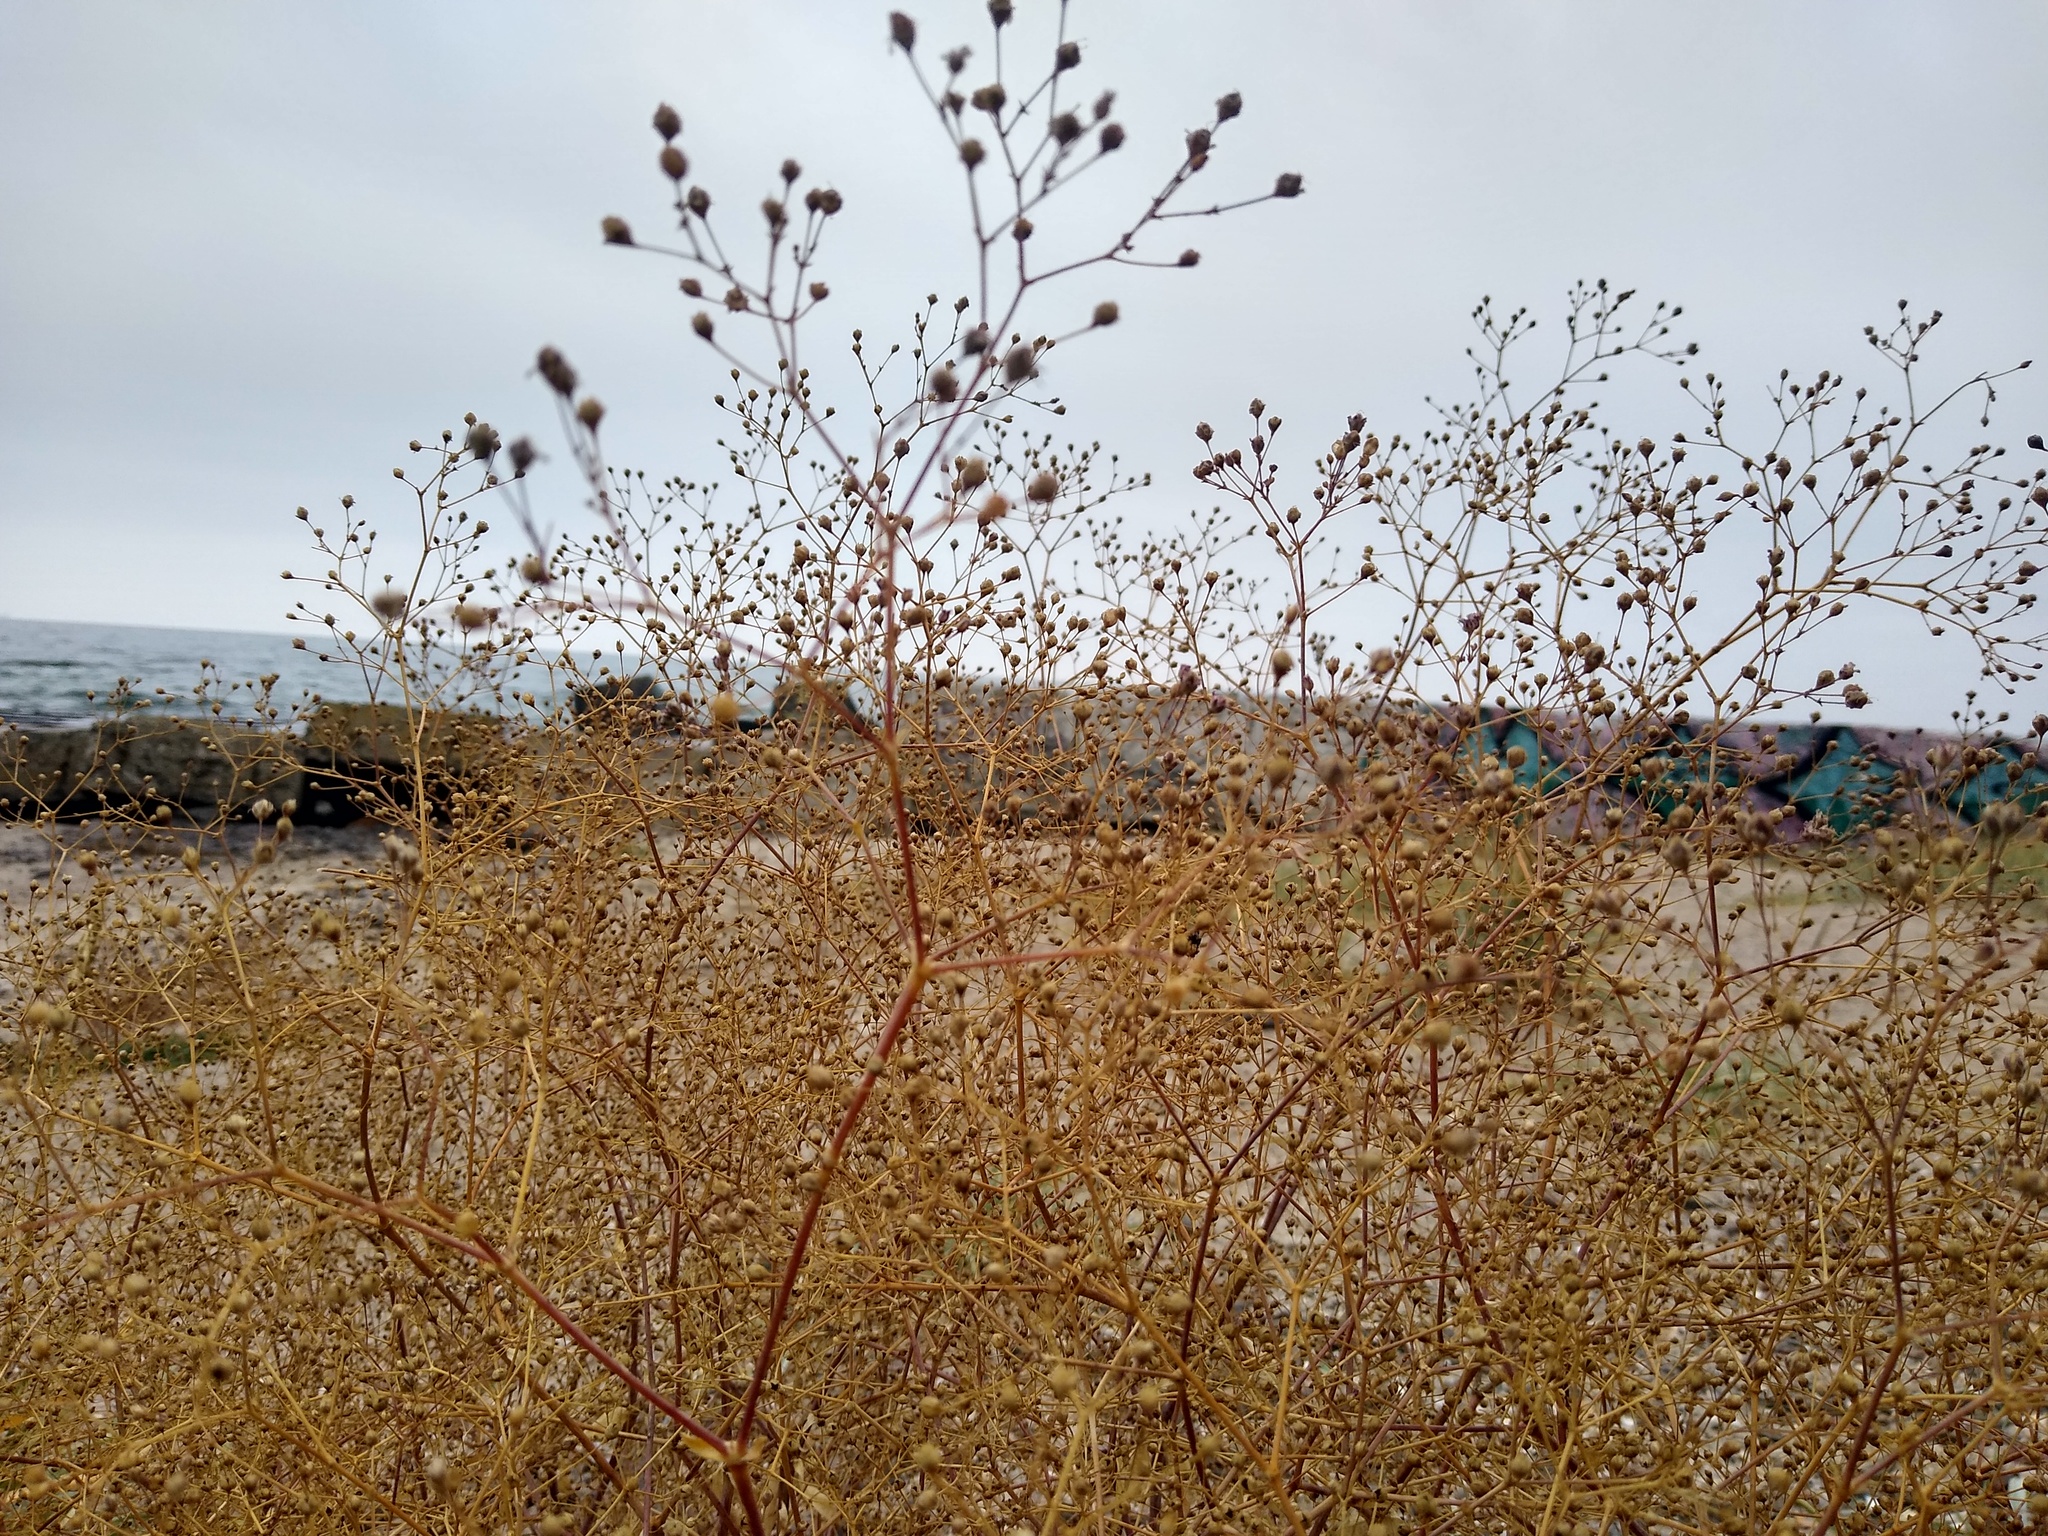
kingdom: Plantae
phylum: Tracheophyta
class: Magnoliopsida
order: Caryophyllales
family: Caryophyllaceae
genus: Gypsophila
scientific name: Gypsophila perfoliata
